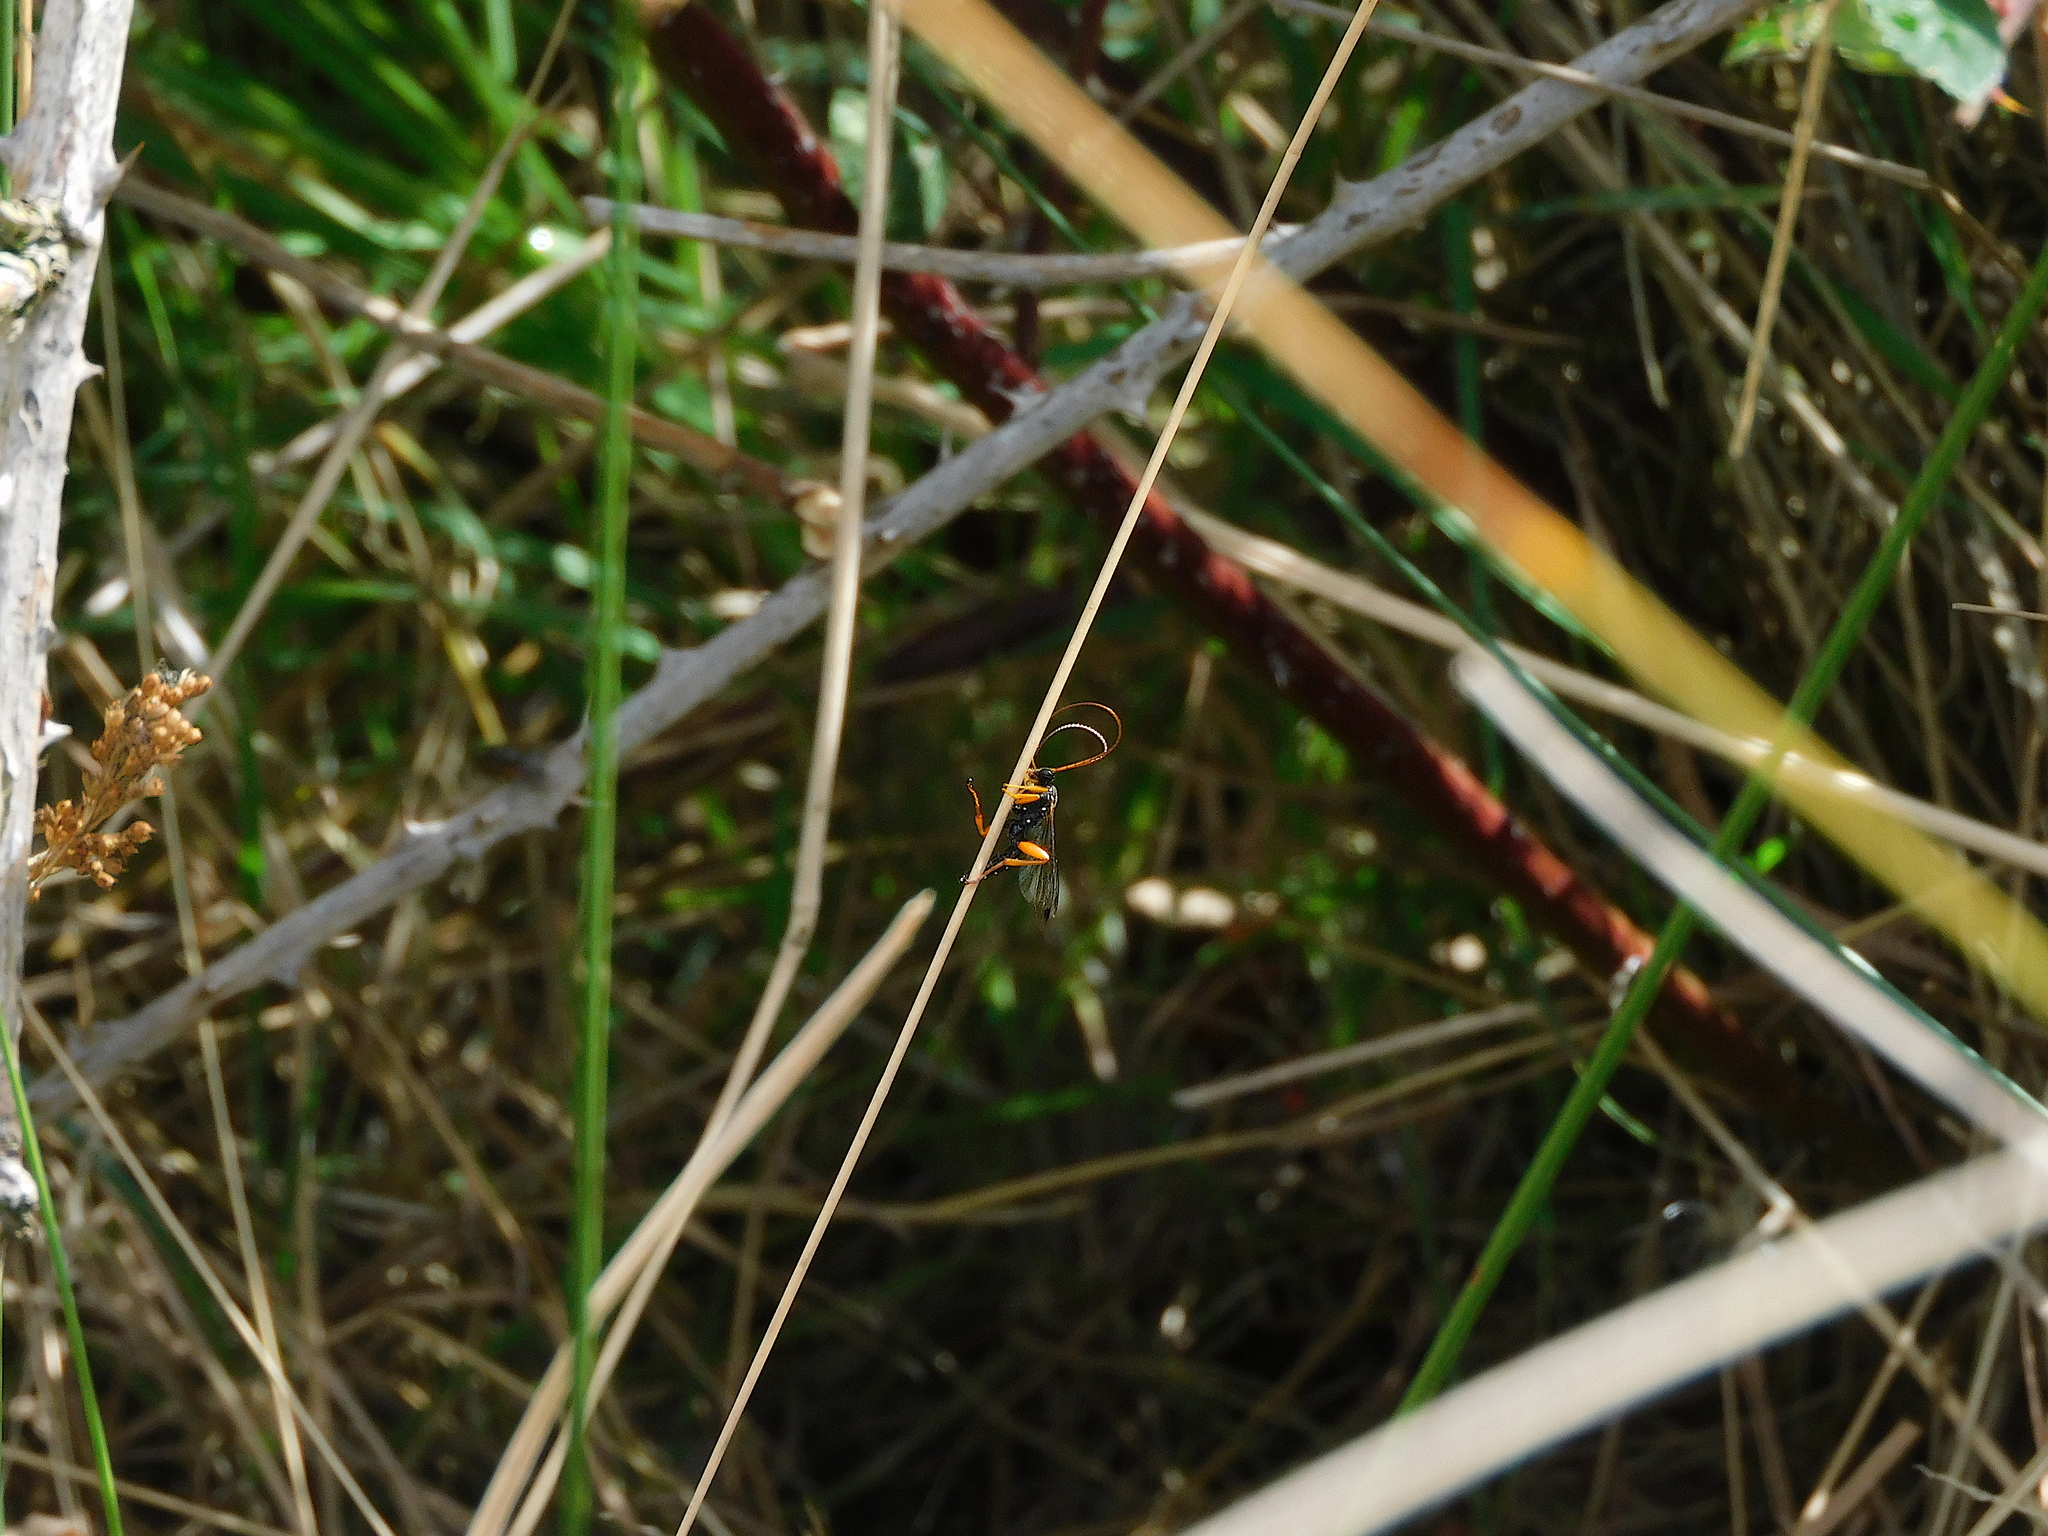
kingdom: Animalia
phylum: Arthropoda
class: Insecta
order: Hymenoptera
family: Ichneumonidae
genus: Echthromorpha
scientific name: Echthromorpha intricatoria
